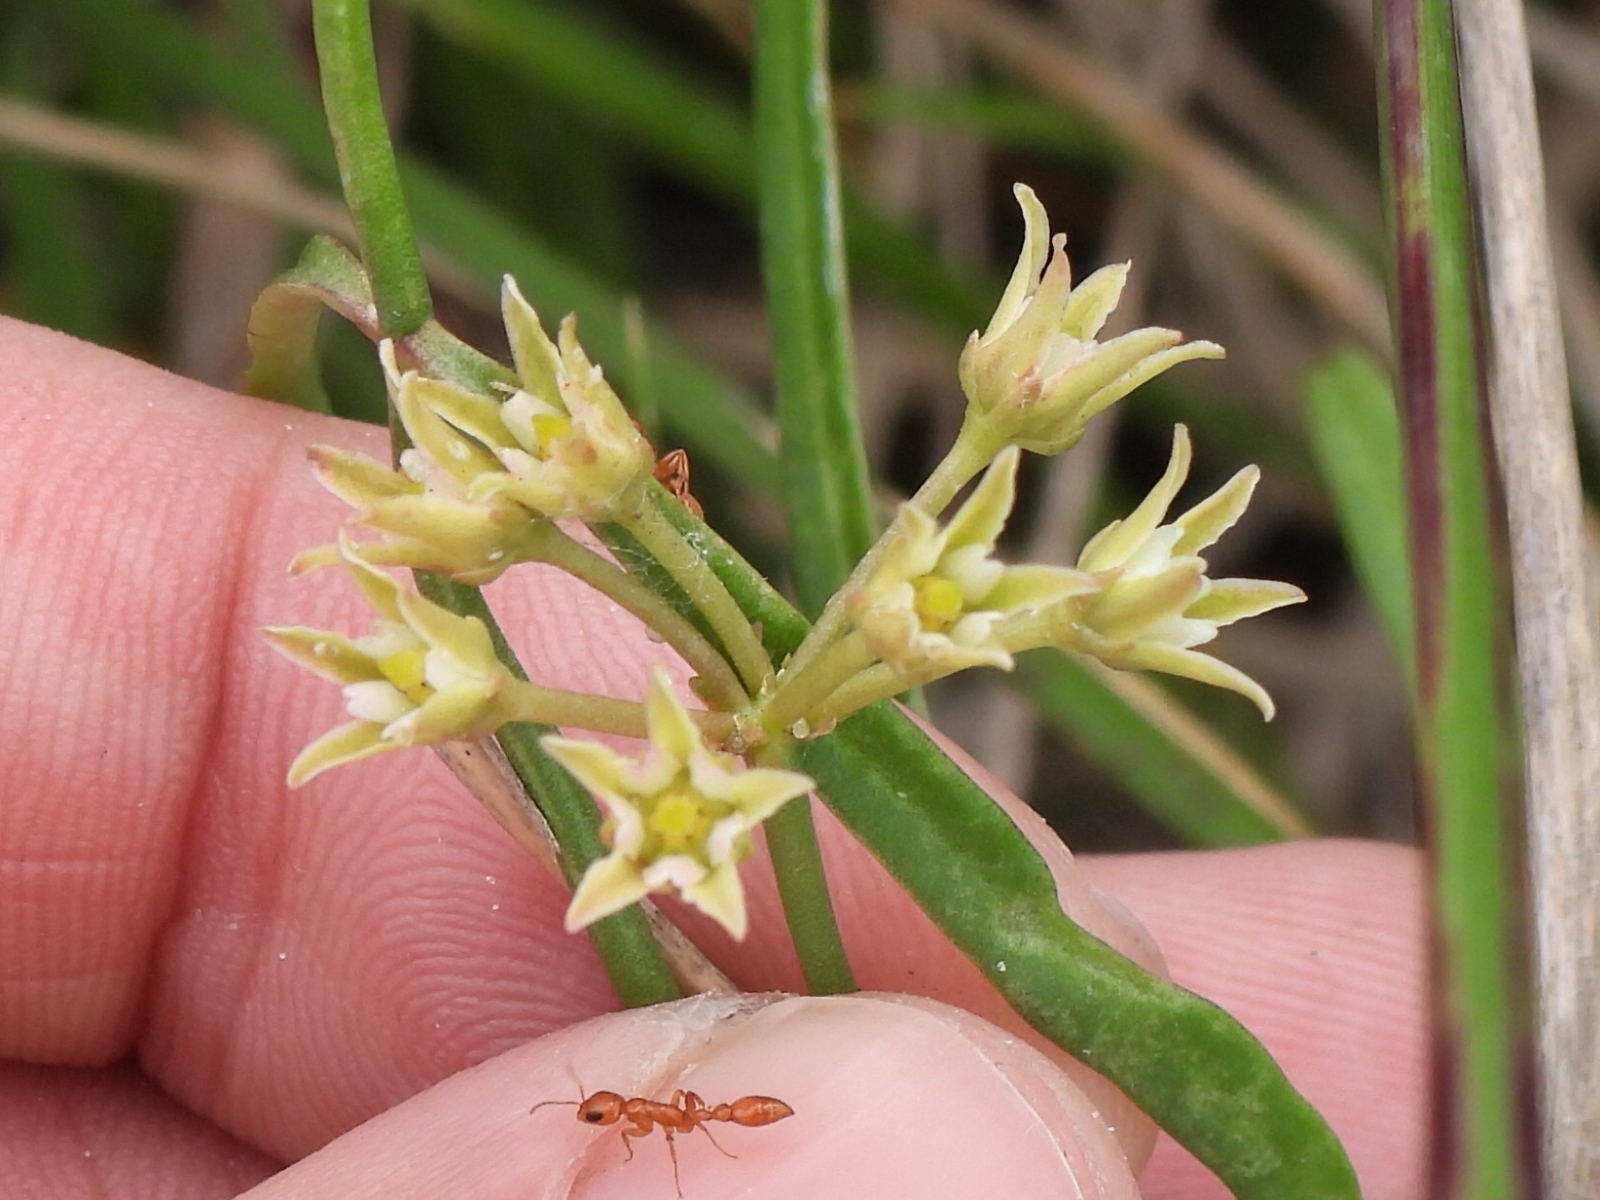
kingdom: Plantae
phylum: Tracheophyta
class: Magnoliopsida
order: Gentianales
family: Apocynaceae
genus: Pattalias
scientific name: Pattalias
